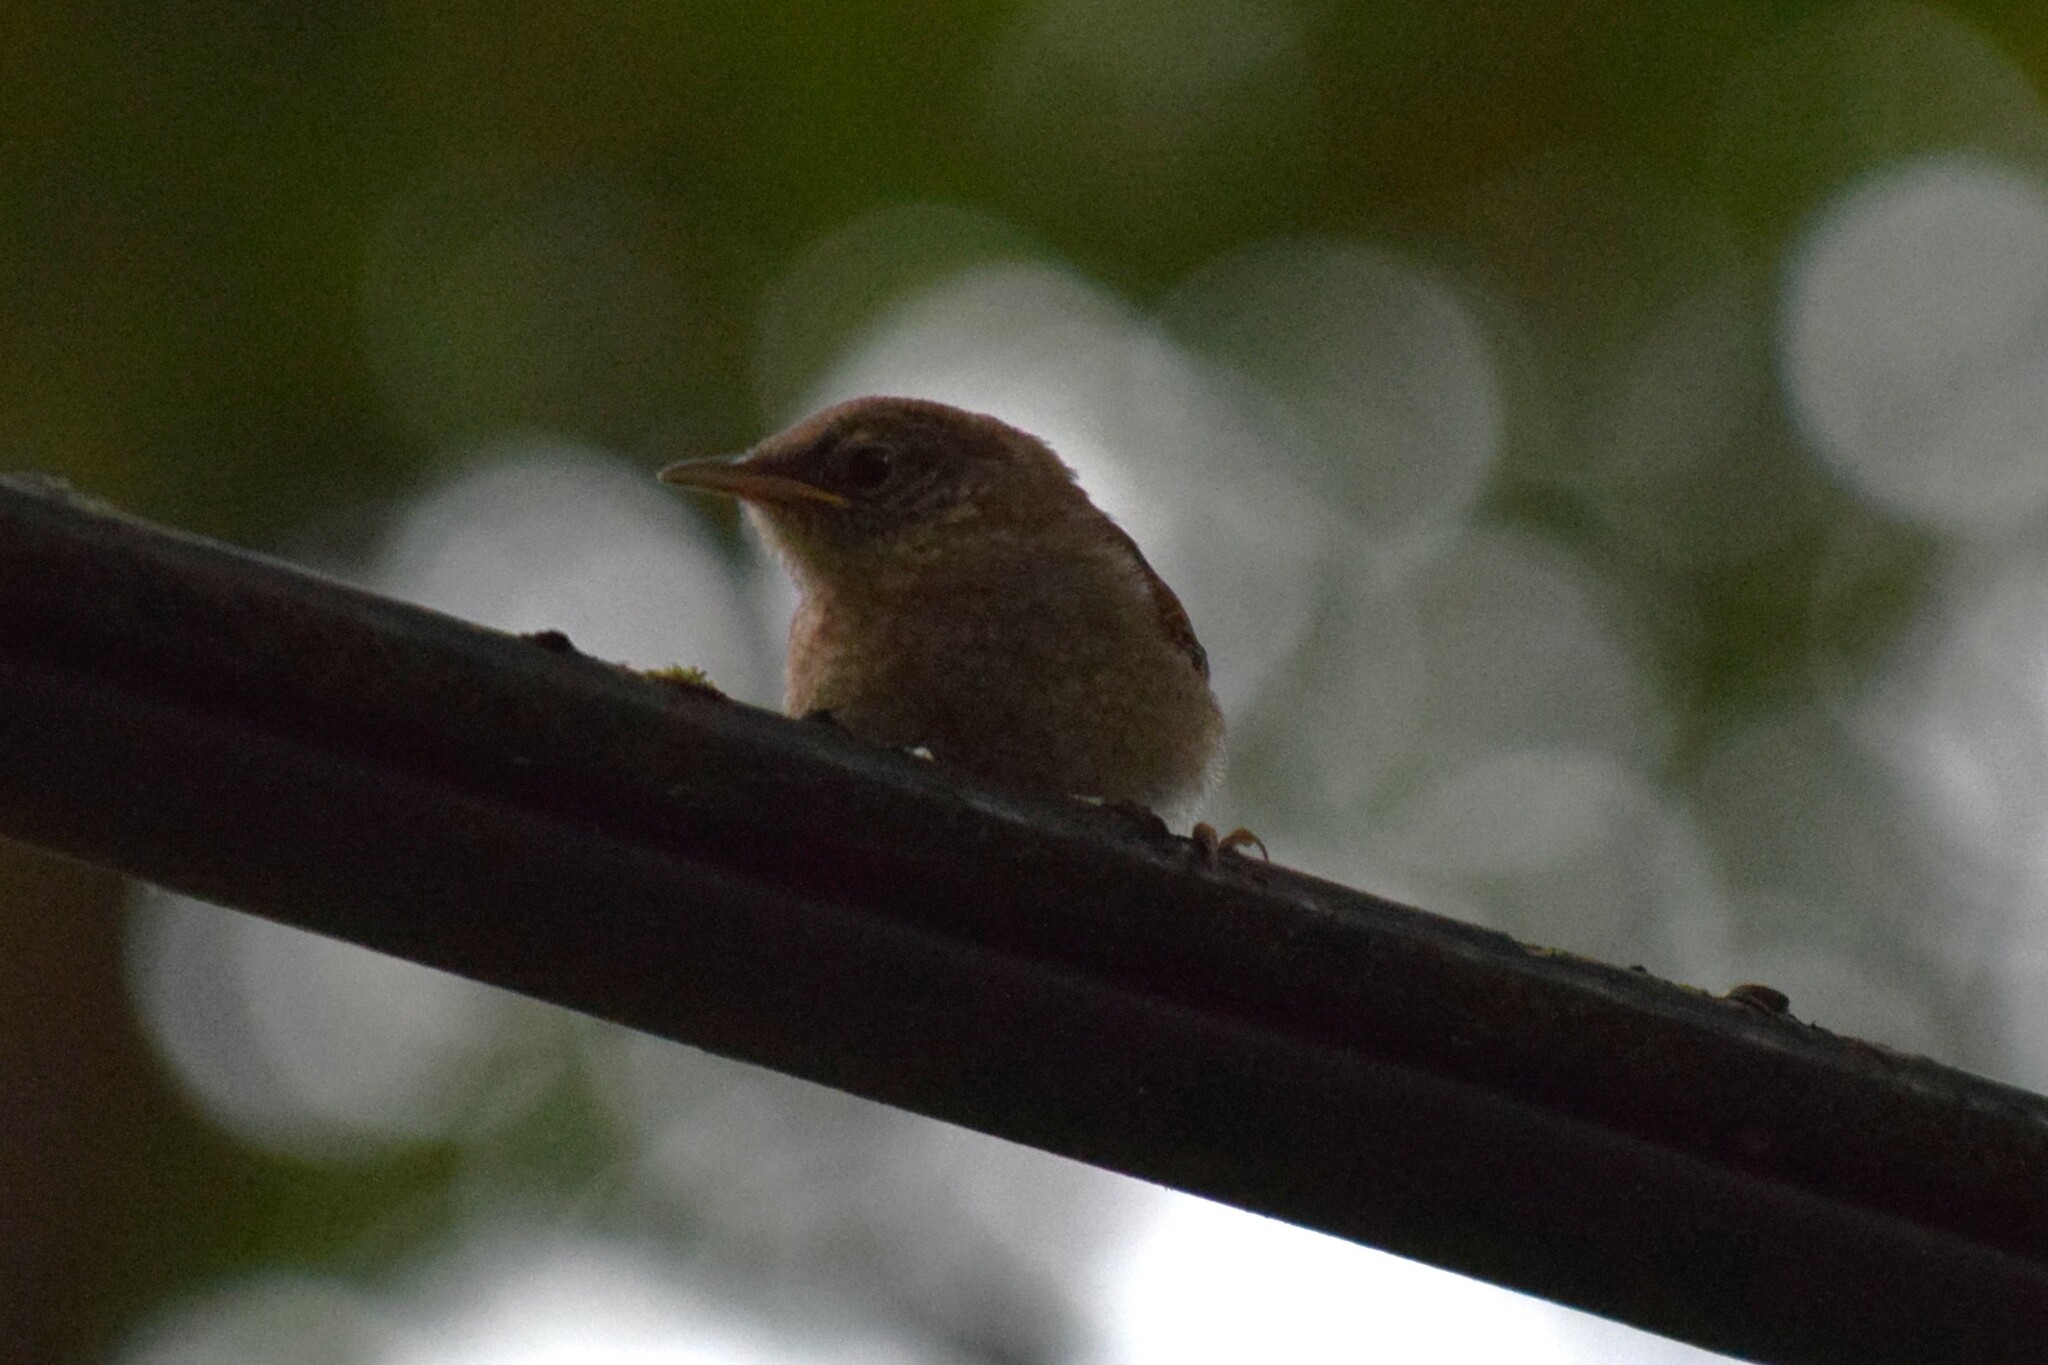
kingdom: Animalia
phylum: Chordata
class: Aves
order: Passeriformes
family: Troglodytidae
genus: Troglodytes
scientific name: Troglodytes aedon
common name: House wren
